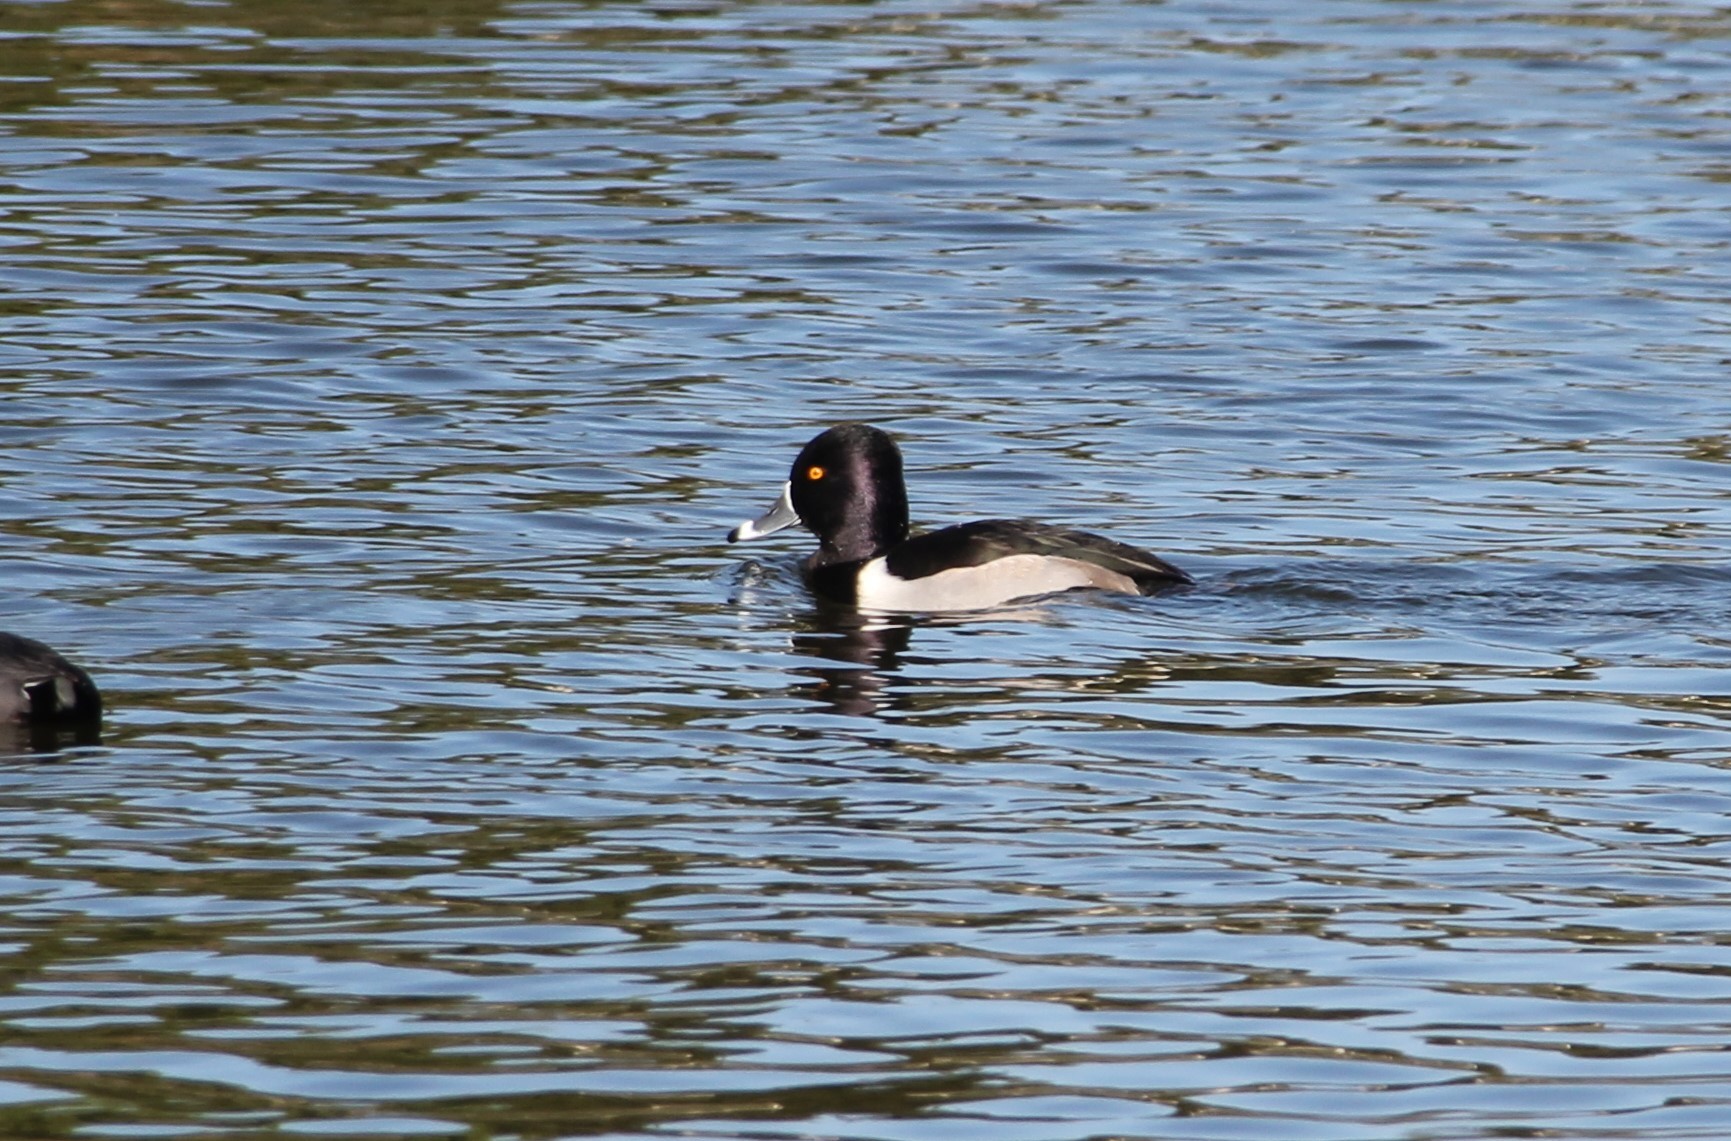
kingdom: Animalia
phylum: Chordata
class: Aves
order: Anseriformes
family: Anatidae
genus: Aythya
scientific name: Aythya collaris
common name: Ring-necked duck
